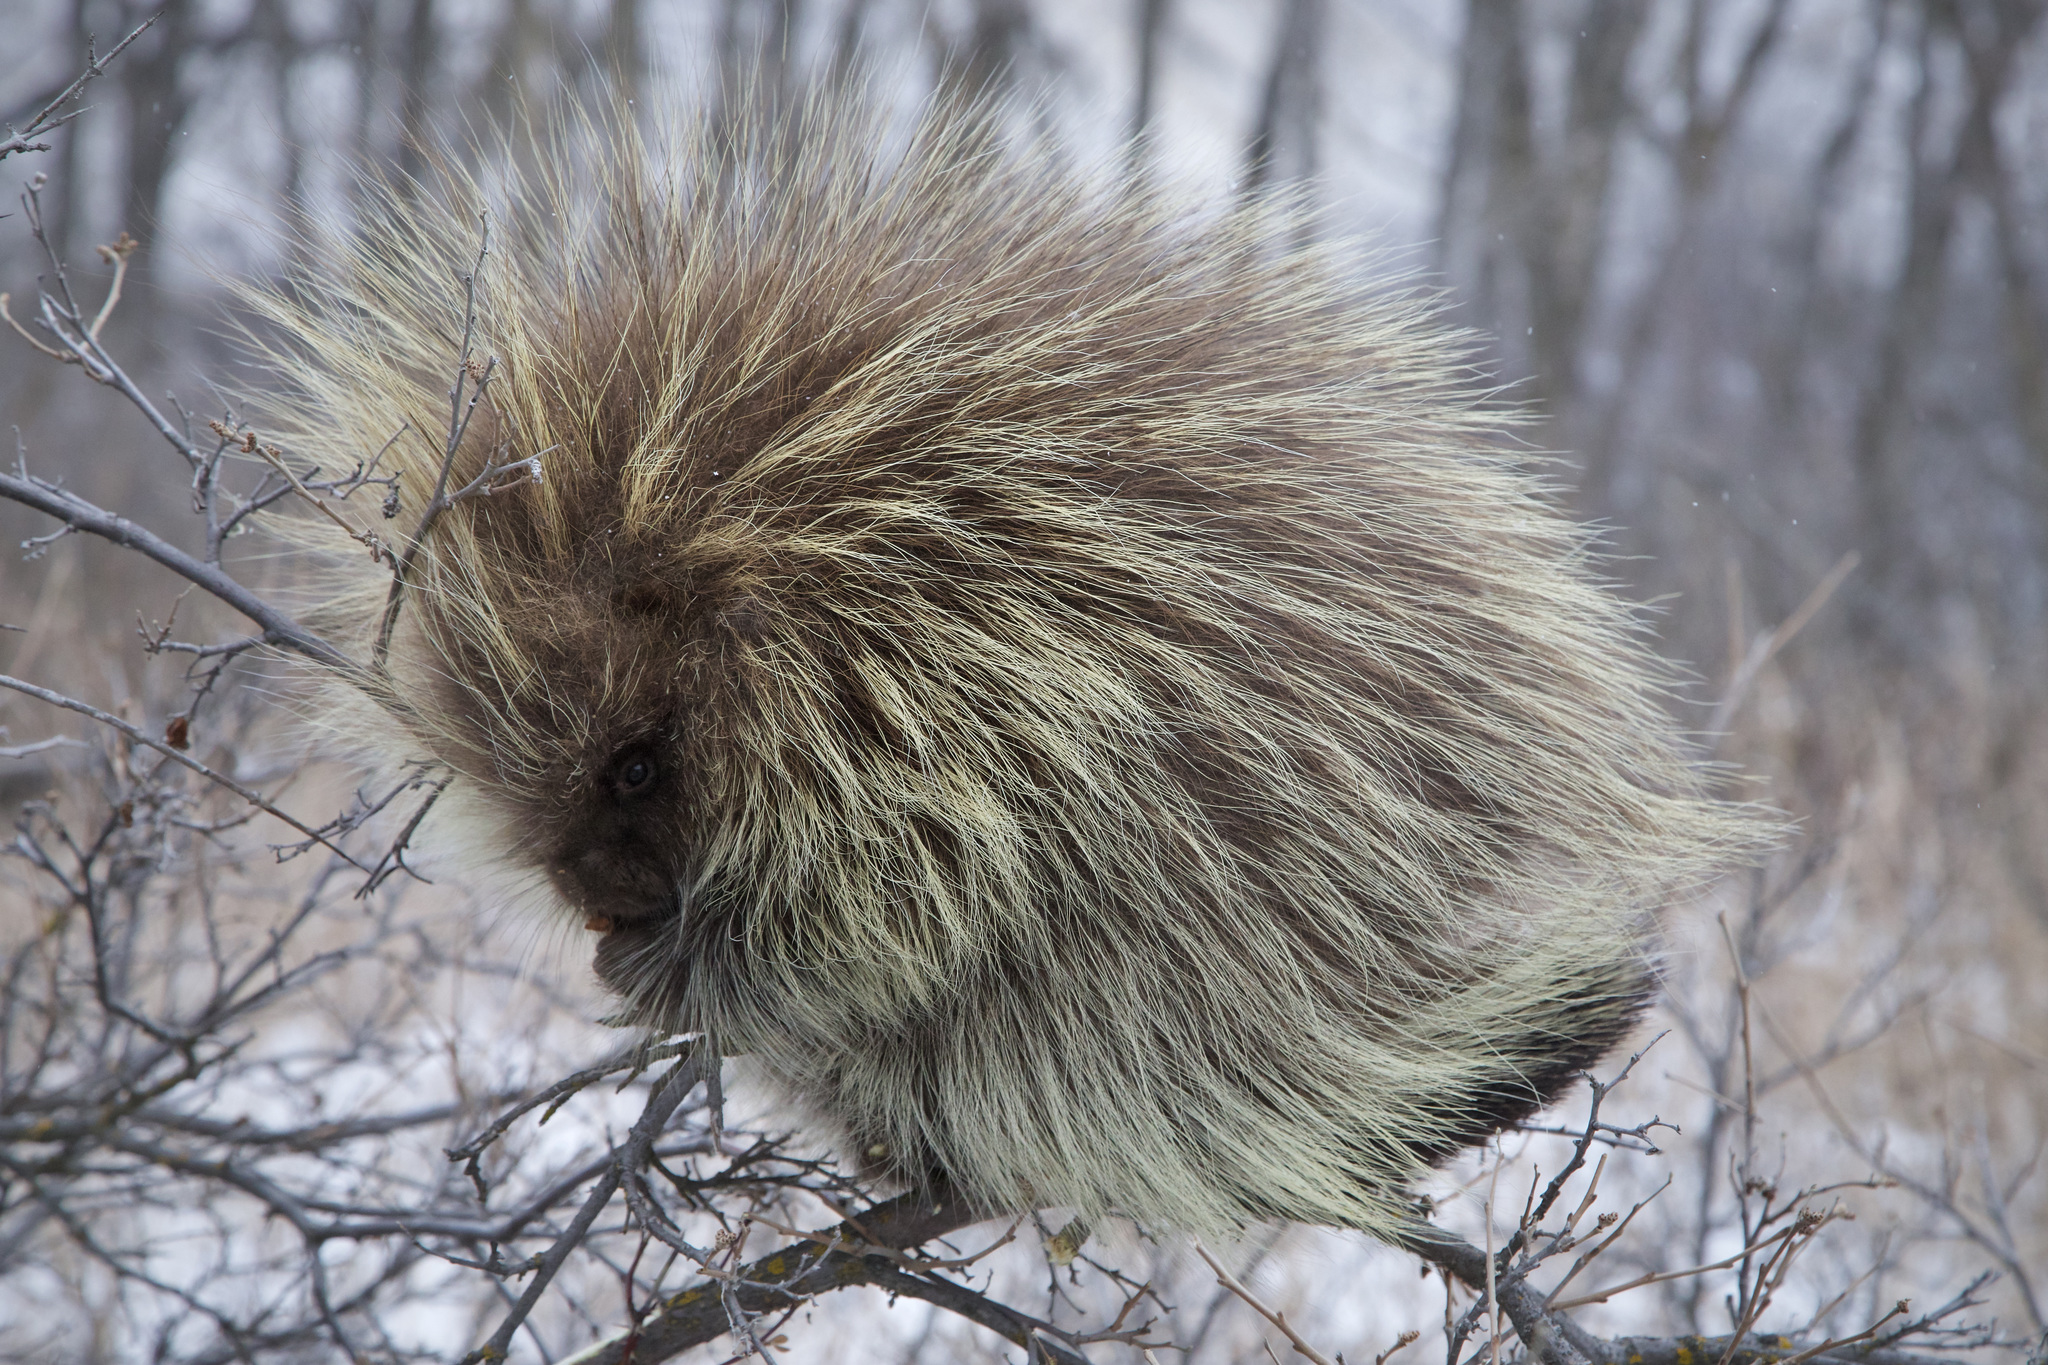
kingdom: Animalia
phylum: Chordata
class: Mammalia
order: Rodentia
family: Erethizontidae
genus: Erethizon
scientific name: Erethizon dorsatus
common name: North american porcupine
